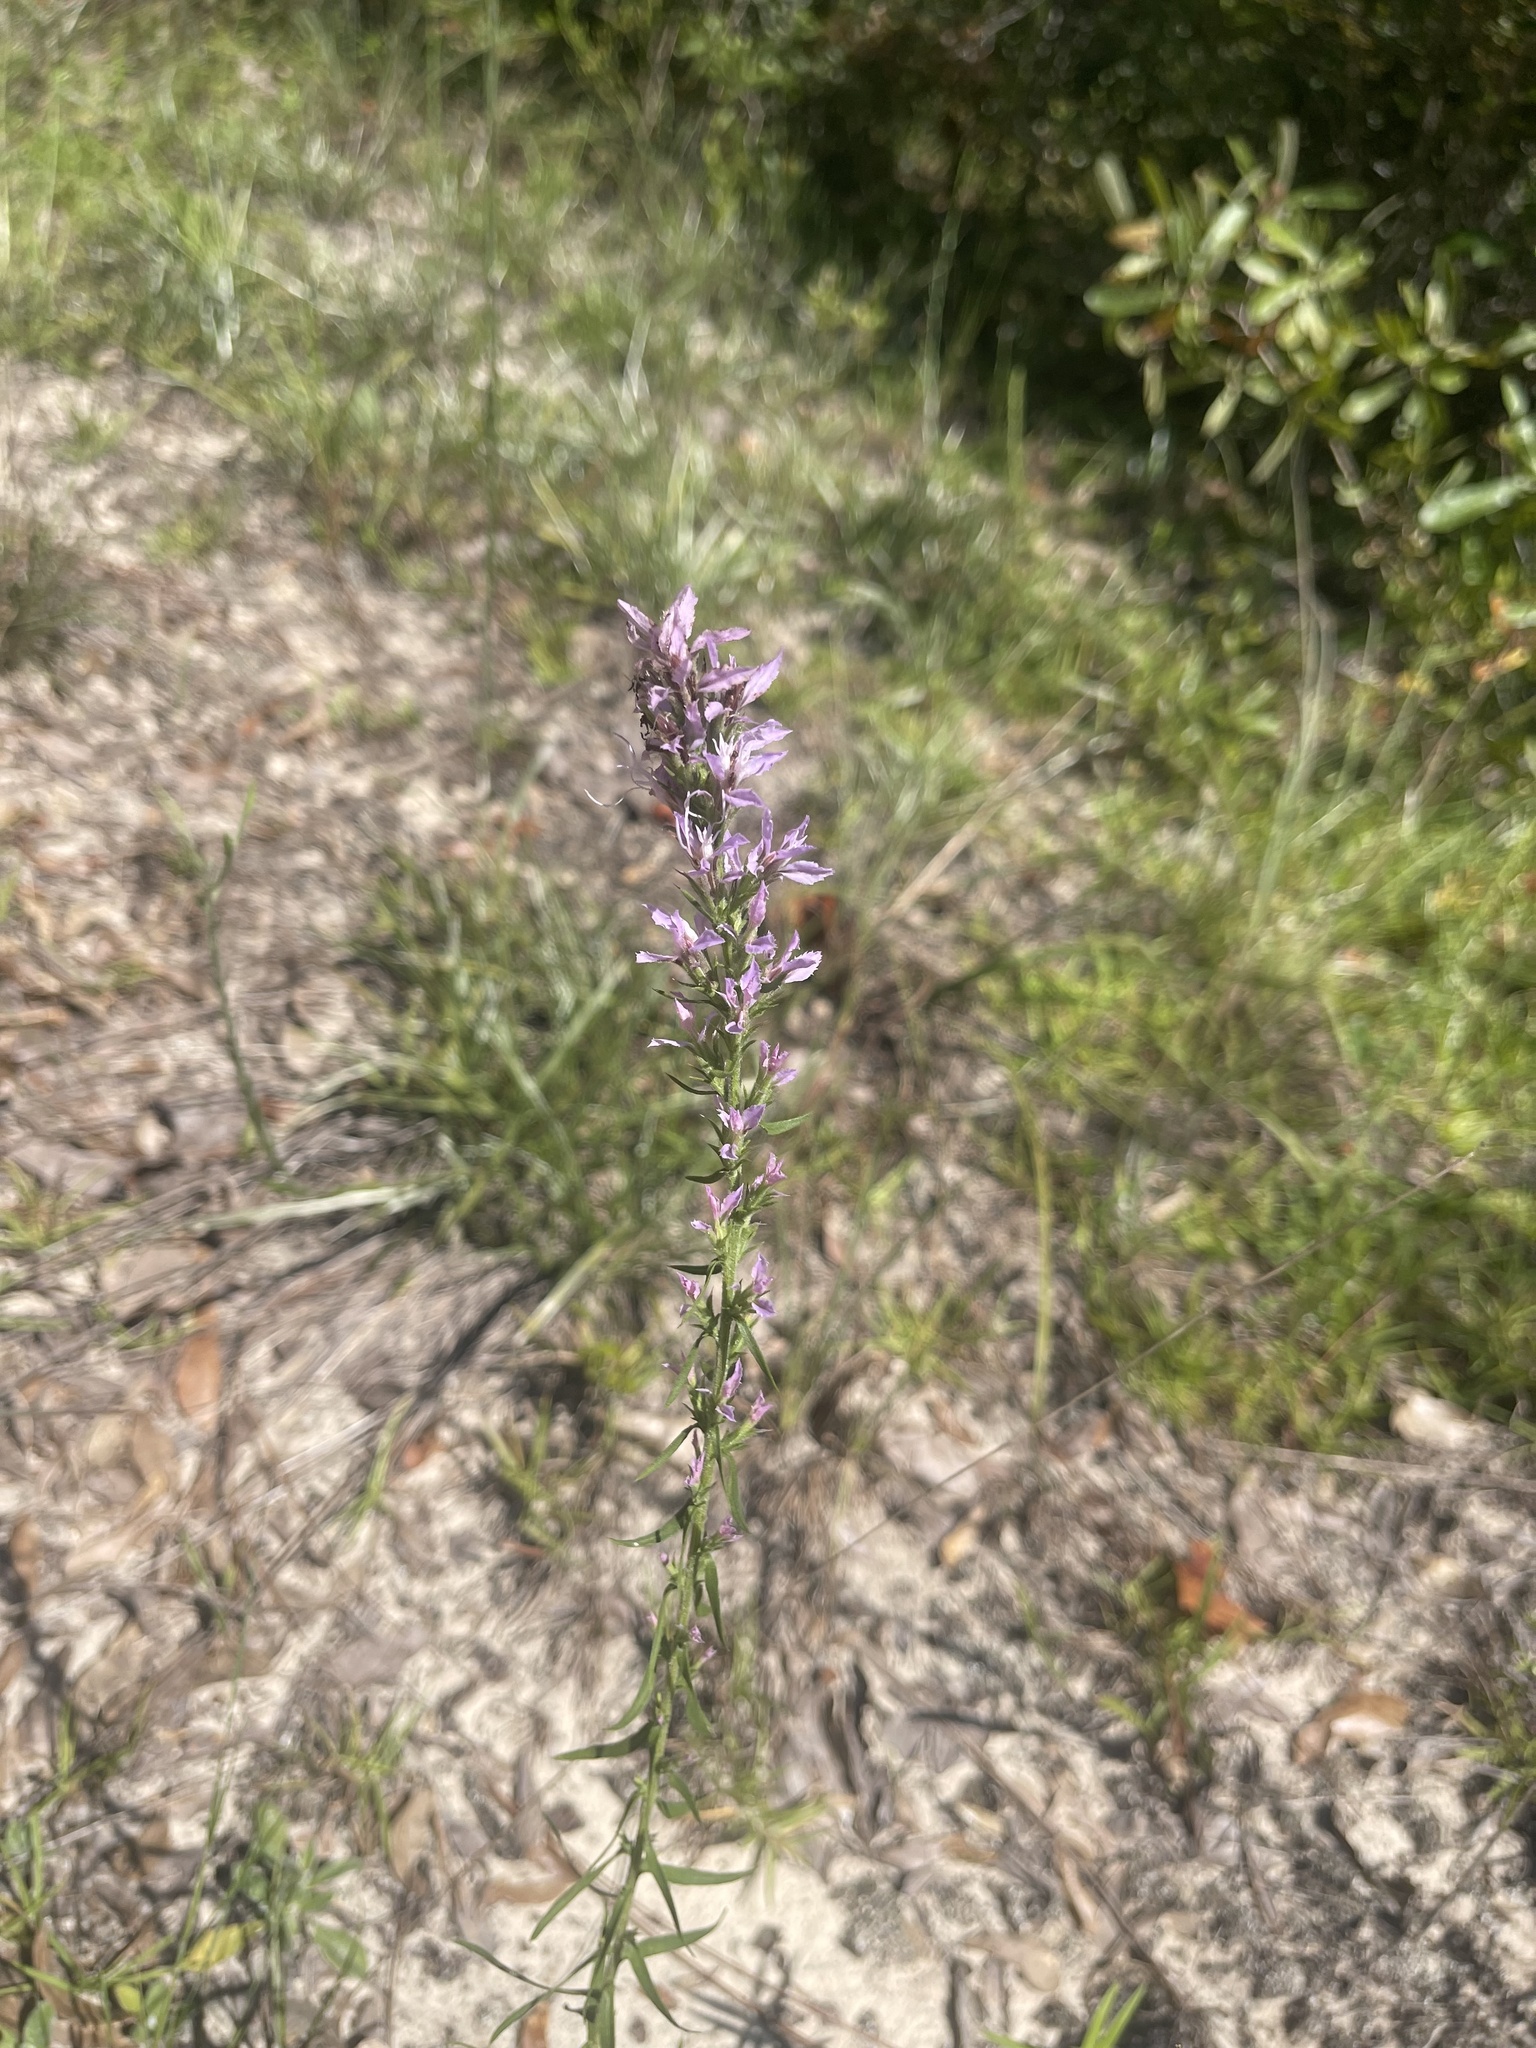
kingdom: Plantae
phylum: Tracheophyta
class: Magnoliopsida
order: Asterales
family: Asteraceae
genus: Liatris
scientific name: Liatris gracilis
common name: Slender gayfeather
